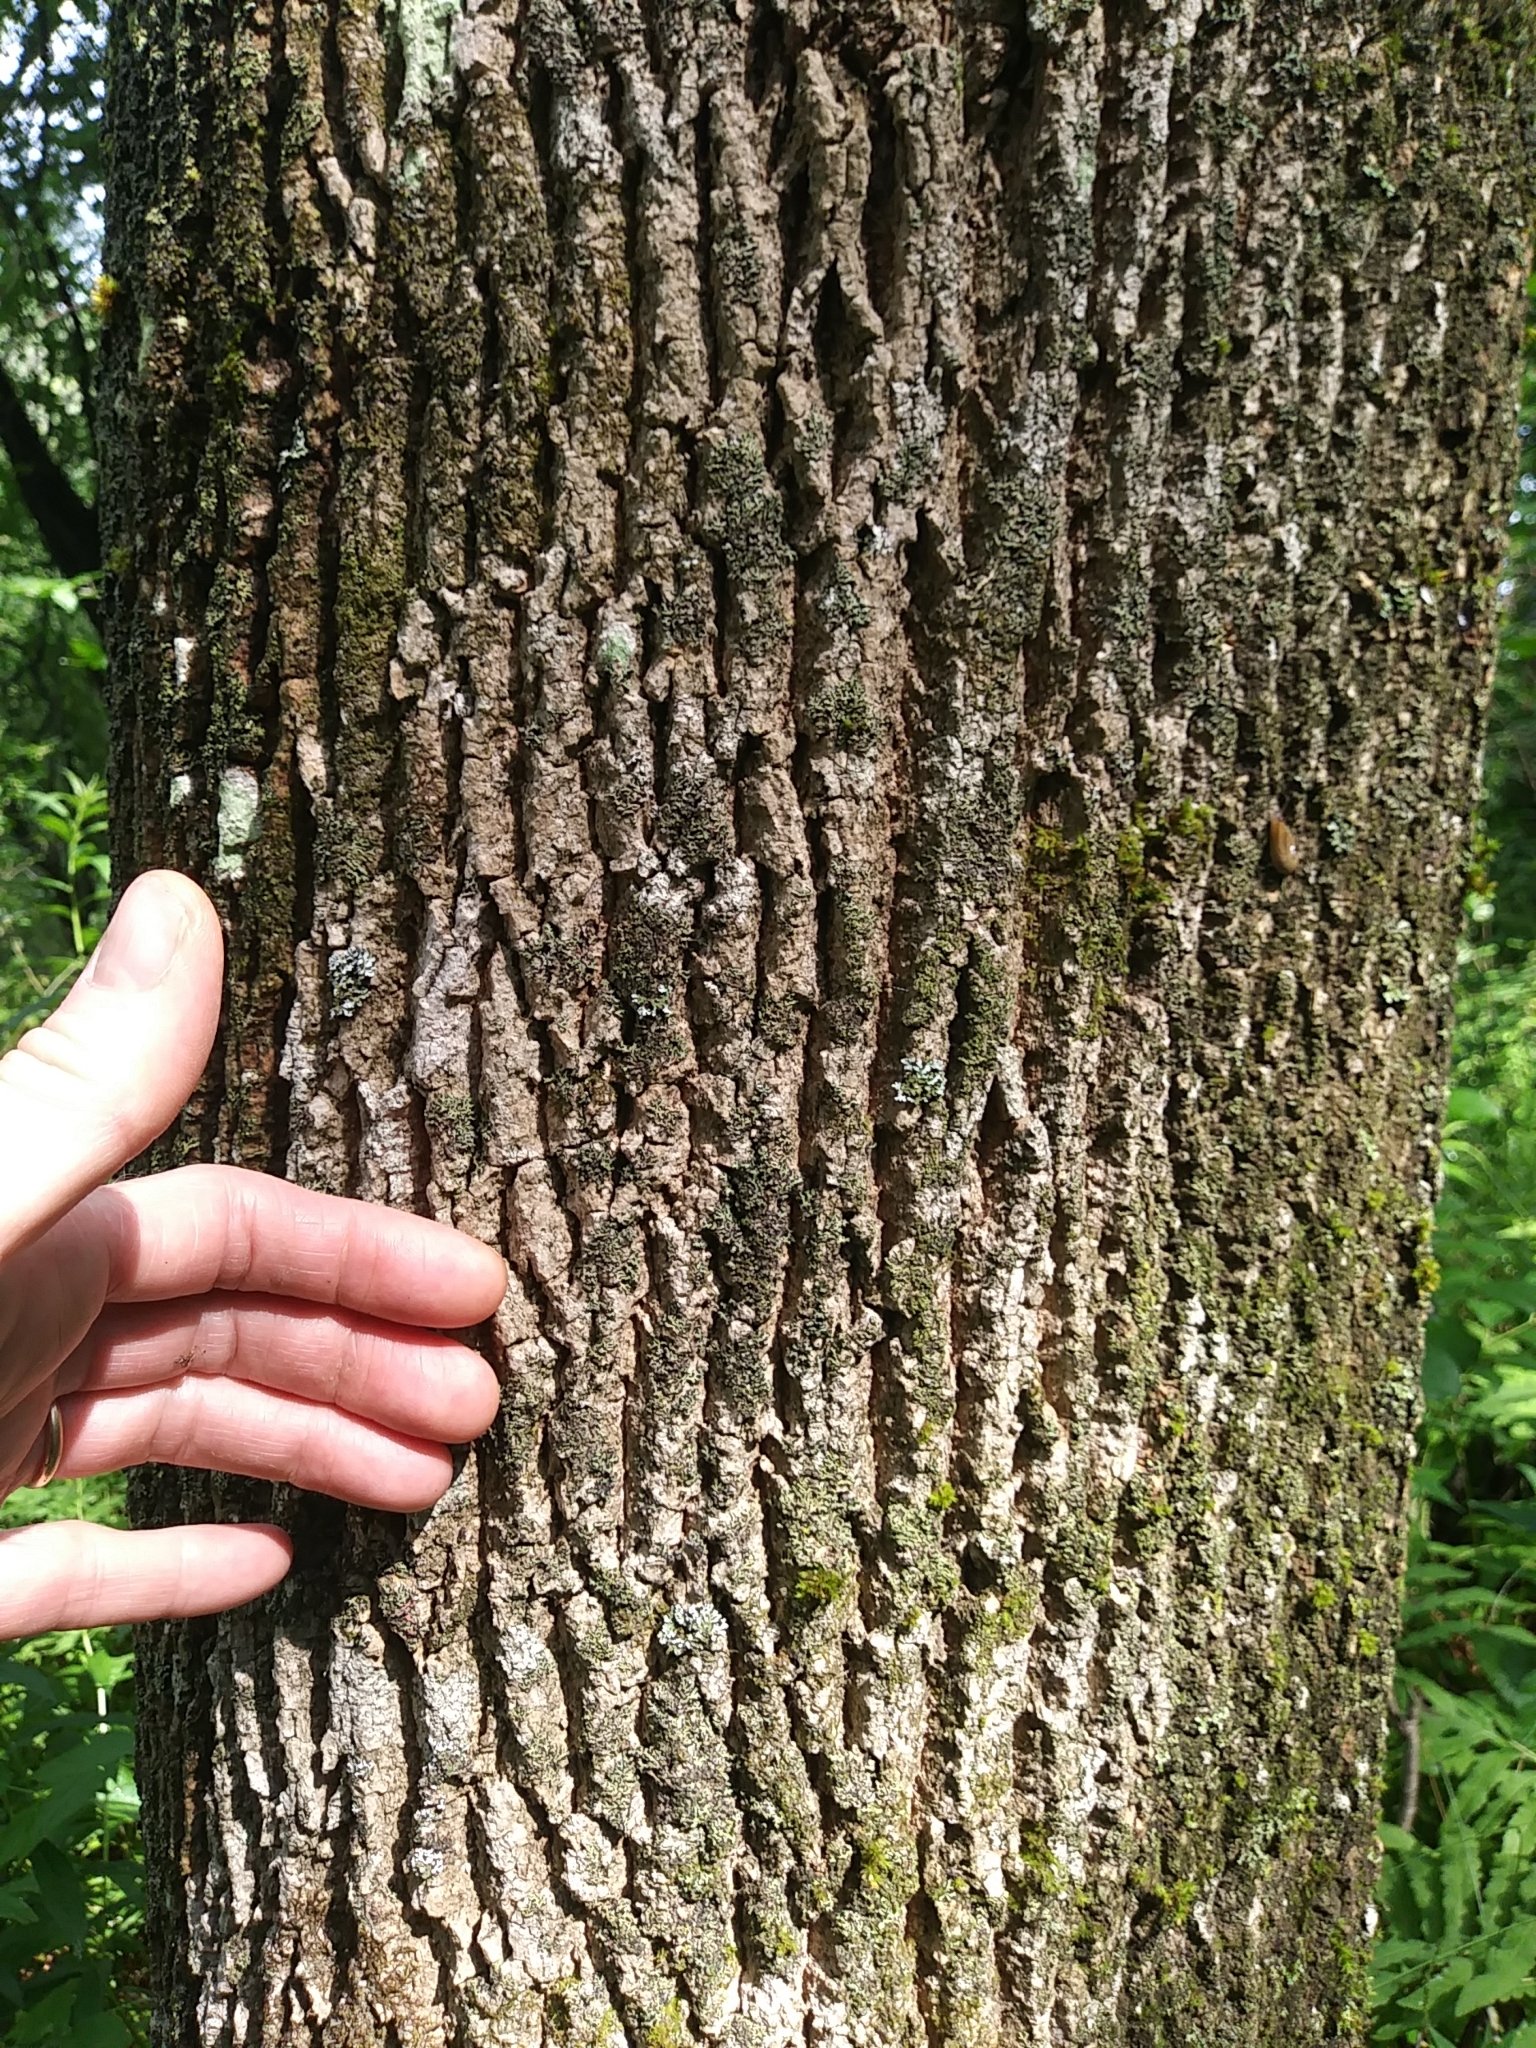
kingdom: Plantae
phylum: Tracheophyta
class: Magnoliopsida
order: Lamiales
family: Oleaceae
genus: Fraxinus
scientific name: Fraxinus americana
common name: White ash
